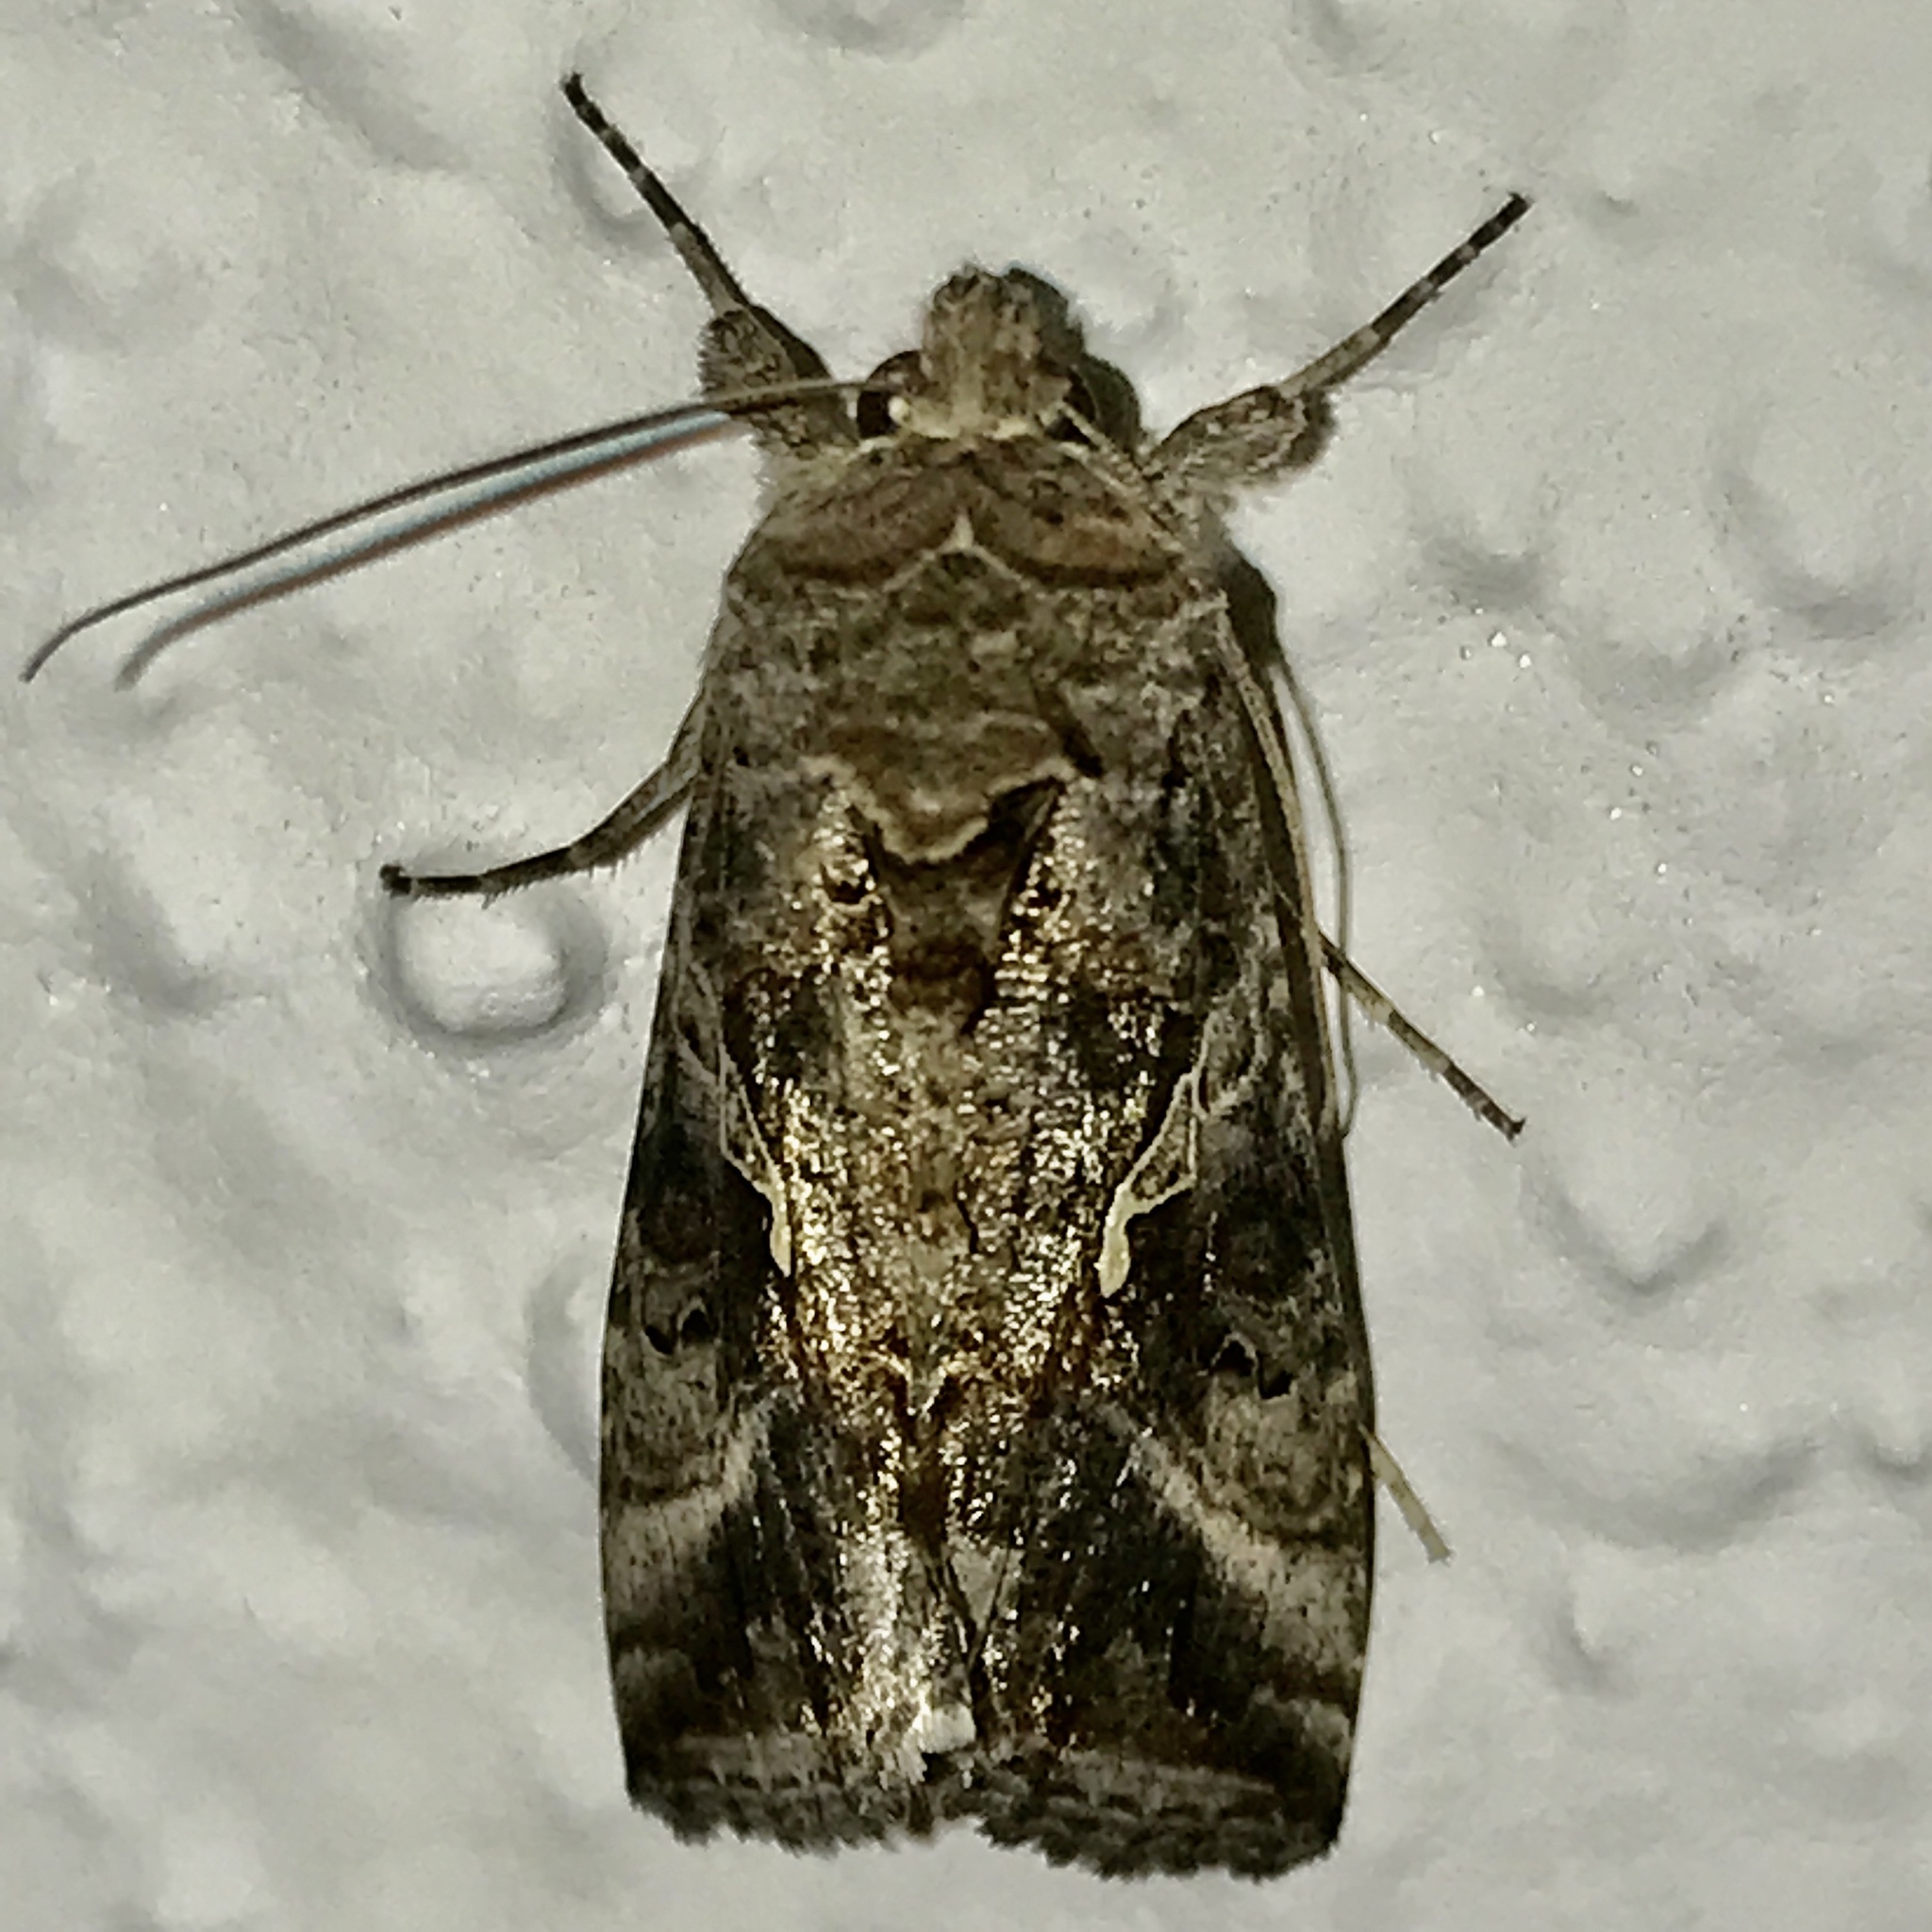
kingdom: Animalia
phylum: Arthropoda
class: Insecta
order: Lepidoptera
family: Noctuidae
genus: Autographa
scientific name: Autographa gamma
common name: Silver y
